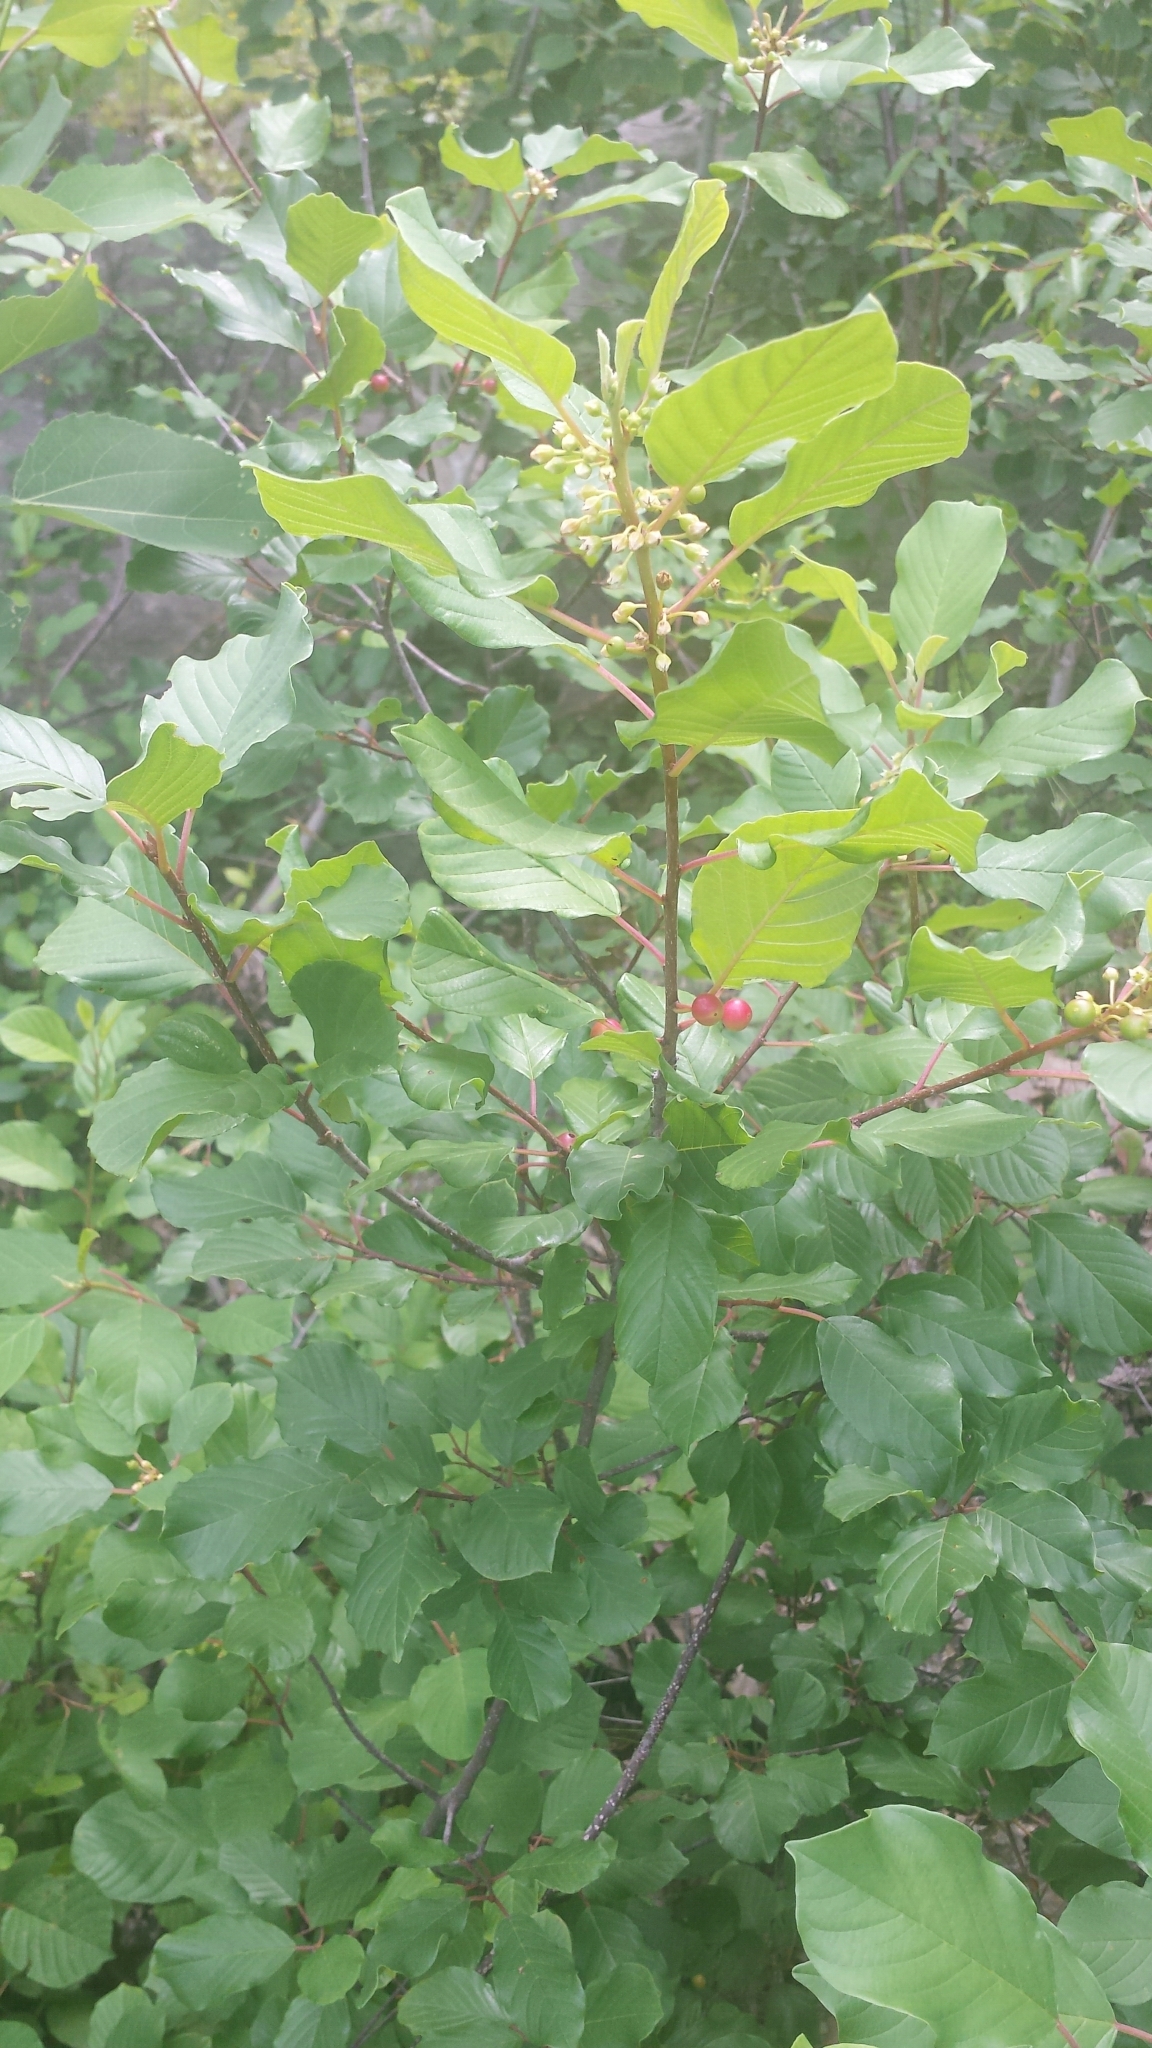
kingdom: Plantae
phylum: Tracheophyta
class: Magnoliopsida
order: Rosales
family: Rhamnaceae
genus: Frangula
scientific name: Frangula alnus
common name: Alder buckthorn
